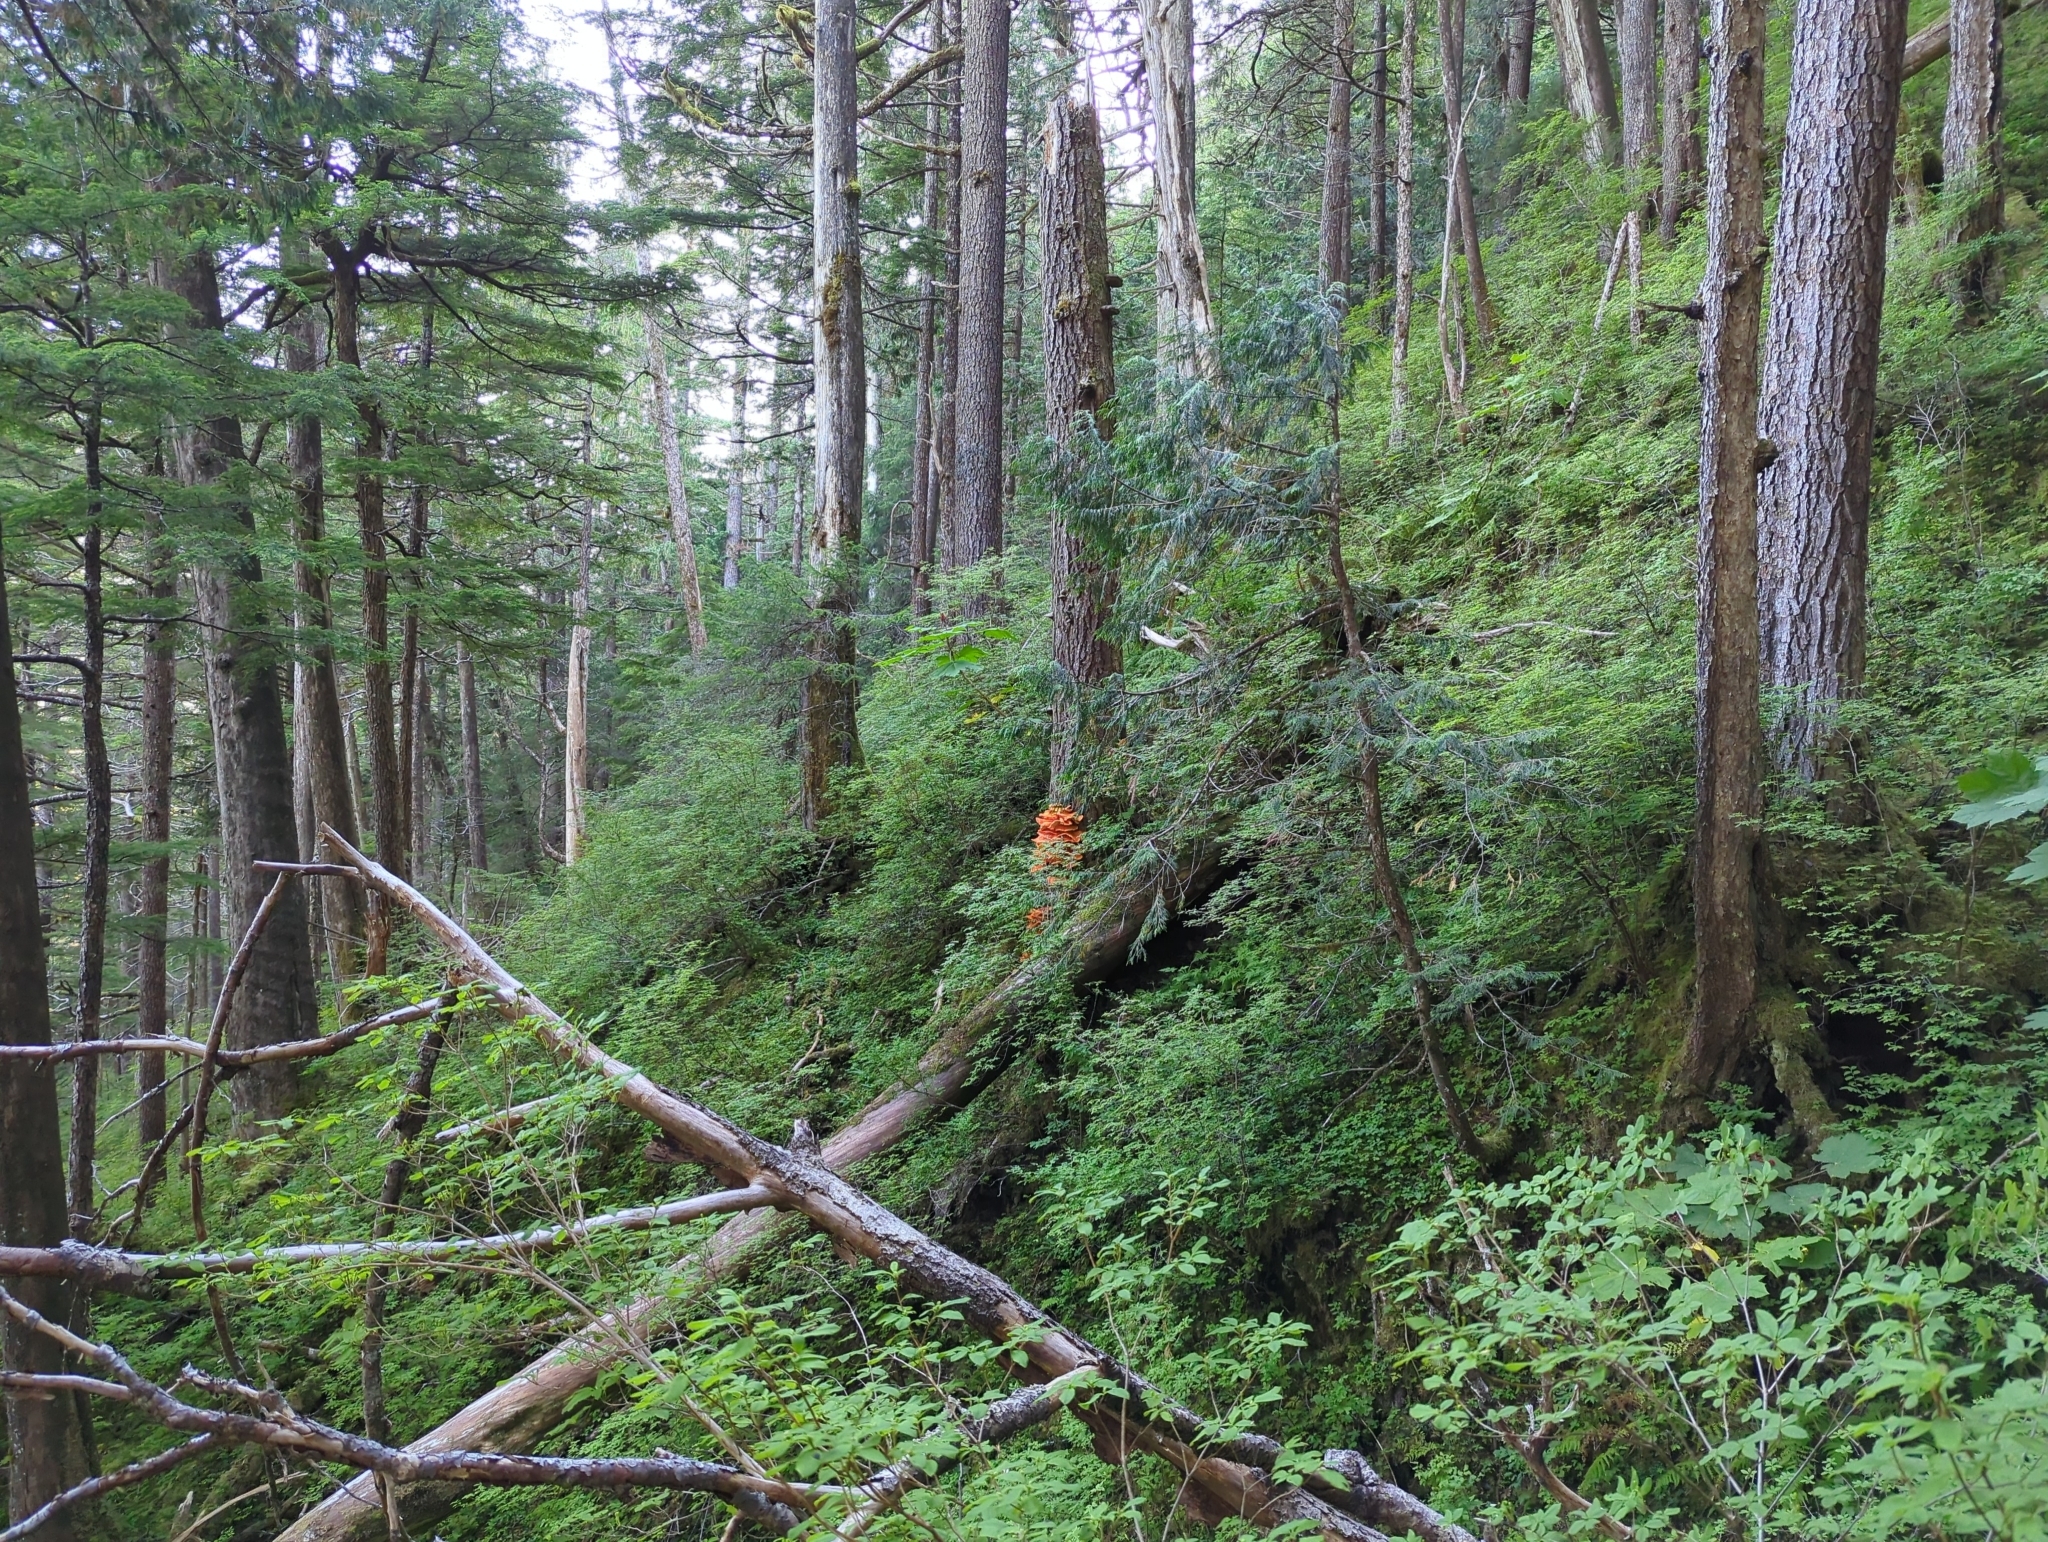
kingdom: Fungi
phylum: Basidiomycota
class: Agaricomycetes
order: Polyporales
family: Laetiporaceae
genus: Laetiporus
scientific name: Laetiporus conifericola
